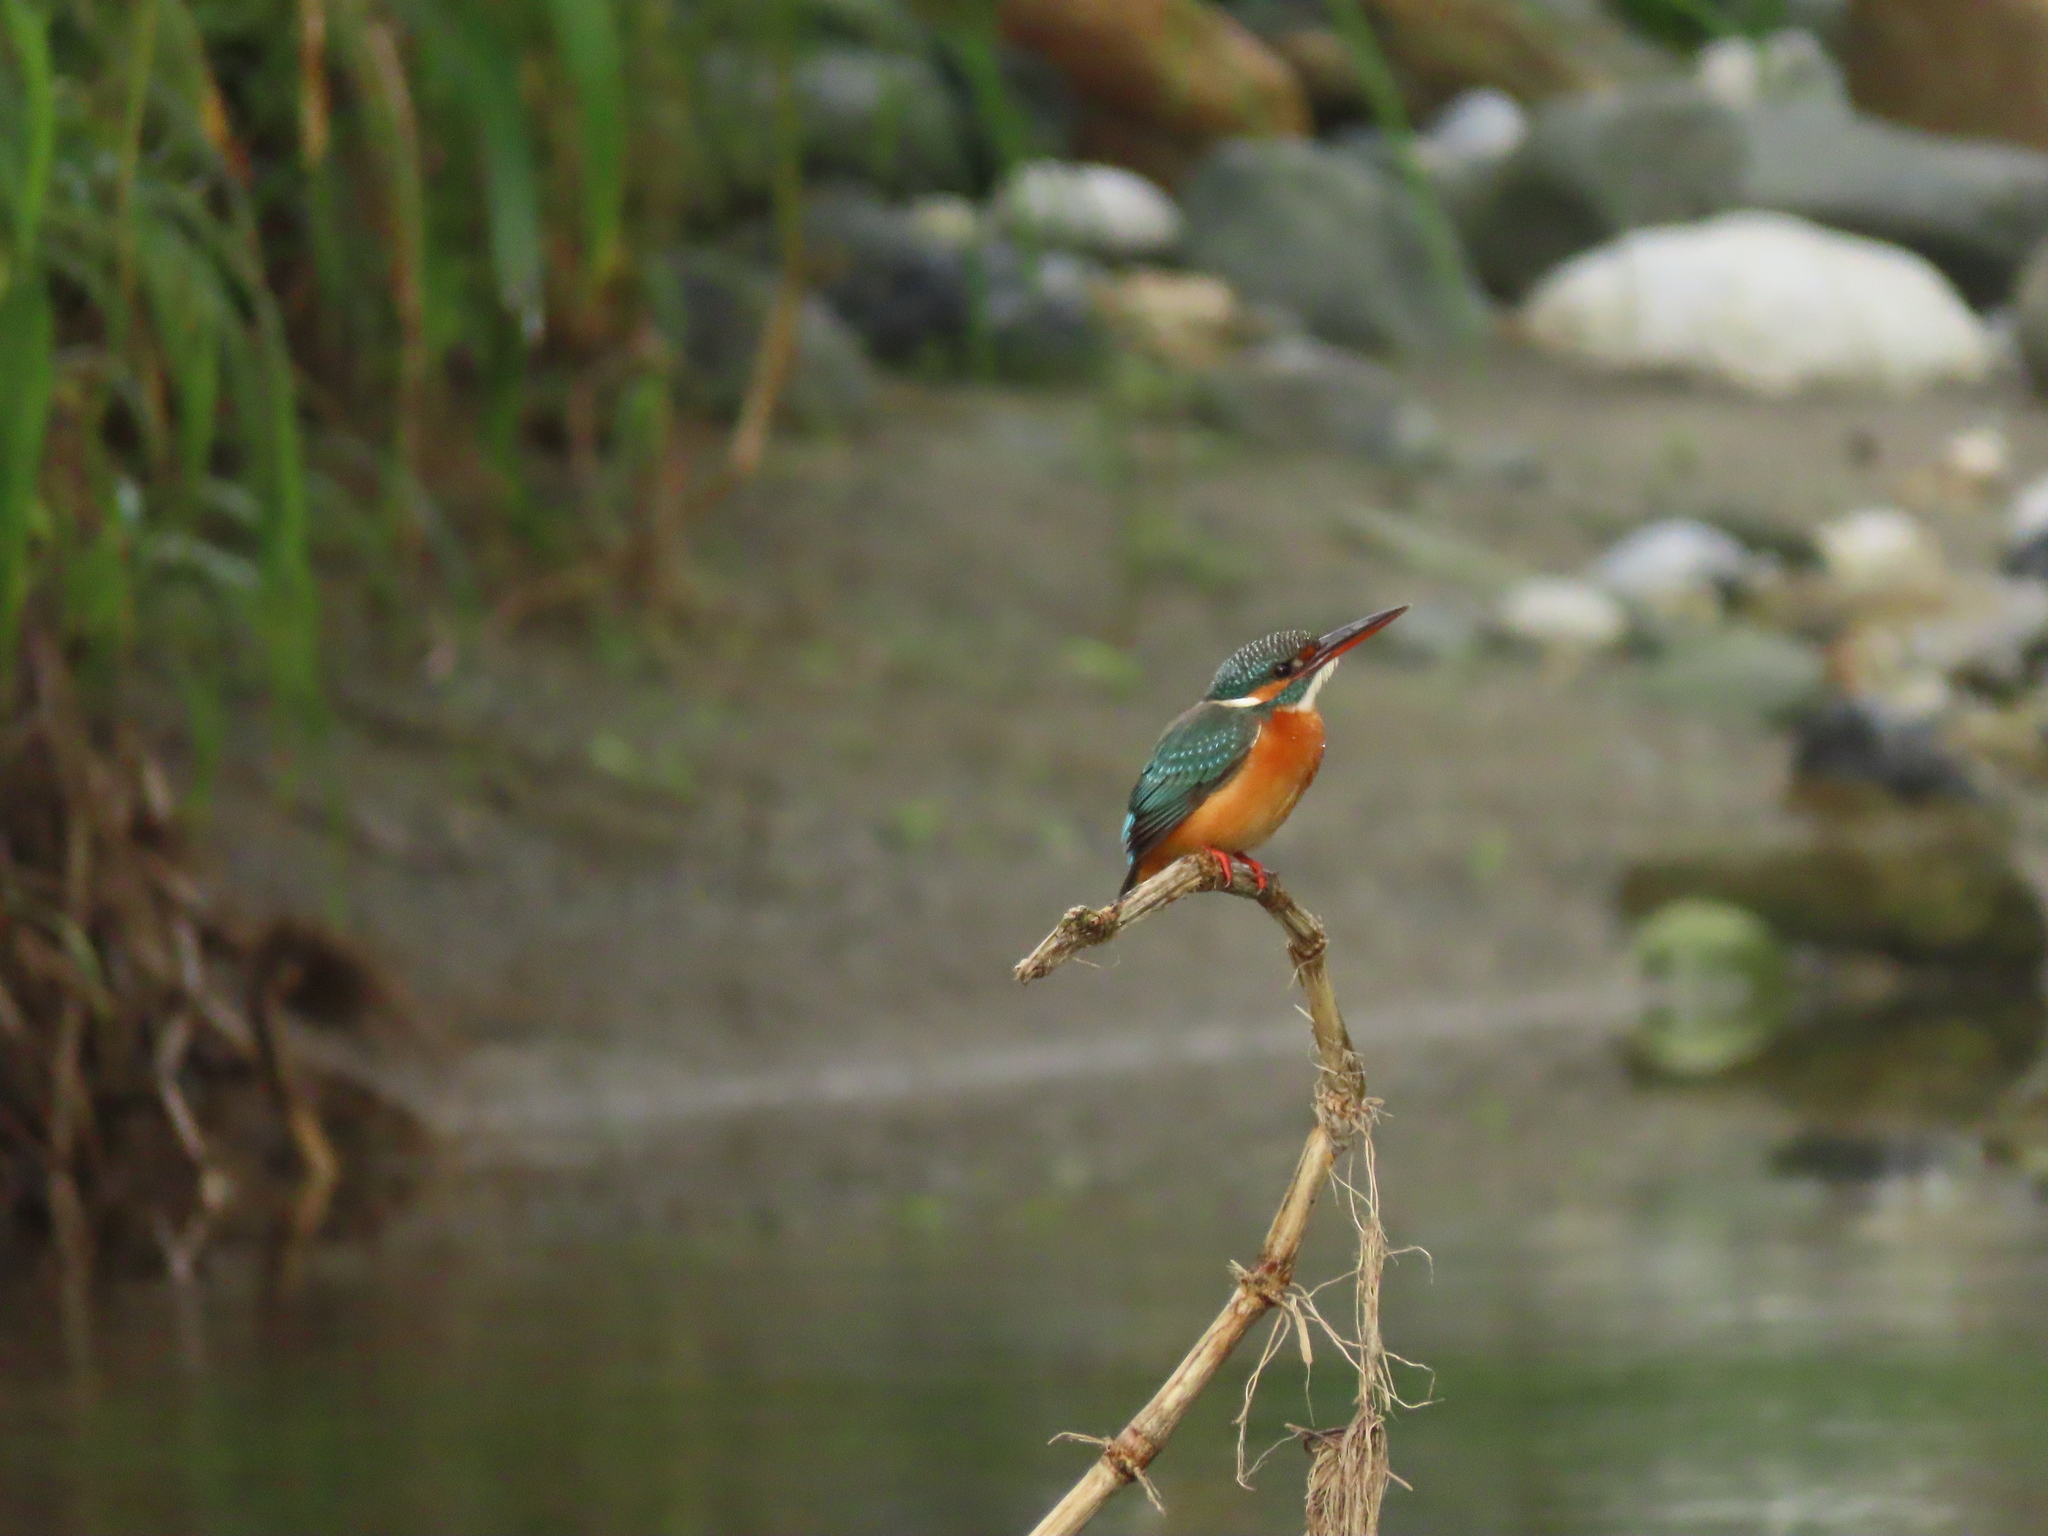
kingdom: Animalia
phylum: Chordata
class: Aves
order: Coraciiformes
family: Alcedinidae
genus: Alcedo
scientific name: Alcedo atthis
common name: Common kingfisher
